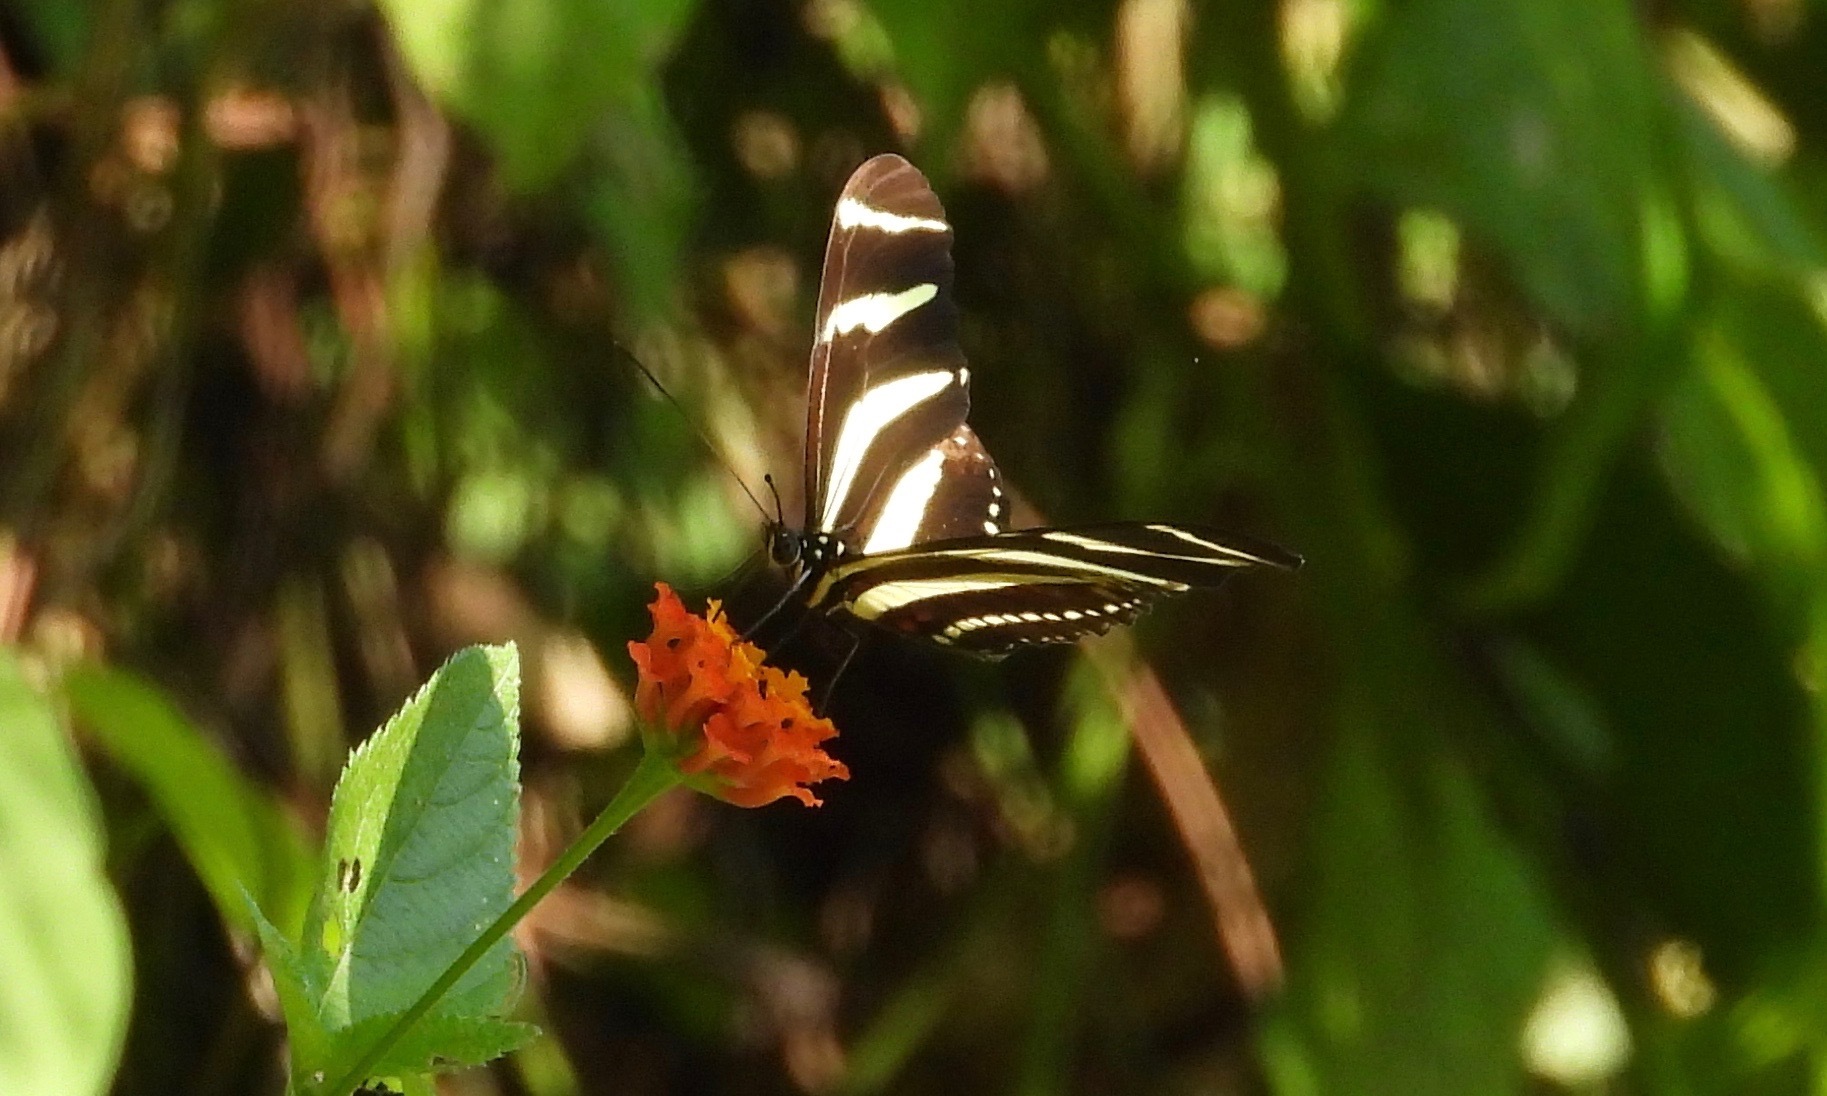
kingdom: Animalia
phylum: Arthropoda
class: Insecta
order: Lepidoptera
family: Nymphalidae
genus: Heliconius
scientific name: Heliconius charithonia
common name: Zebra long wing
